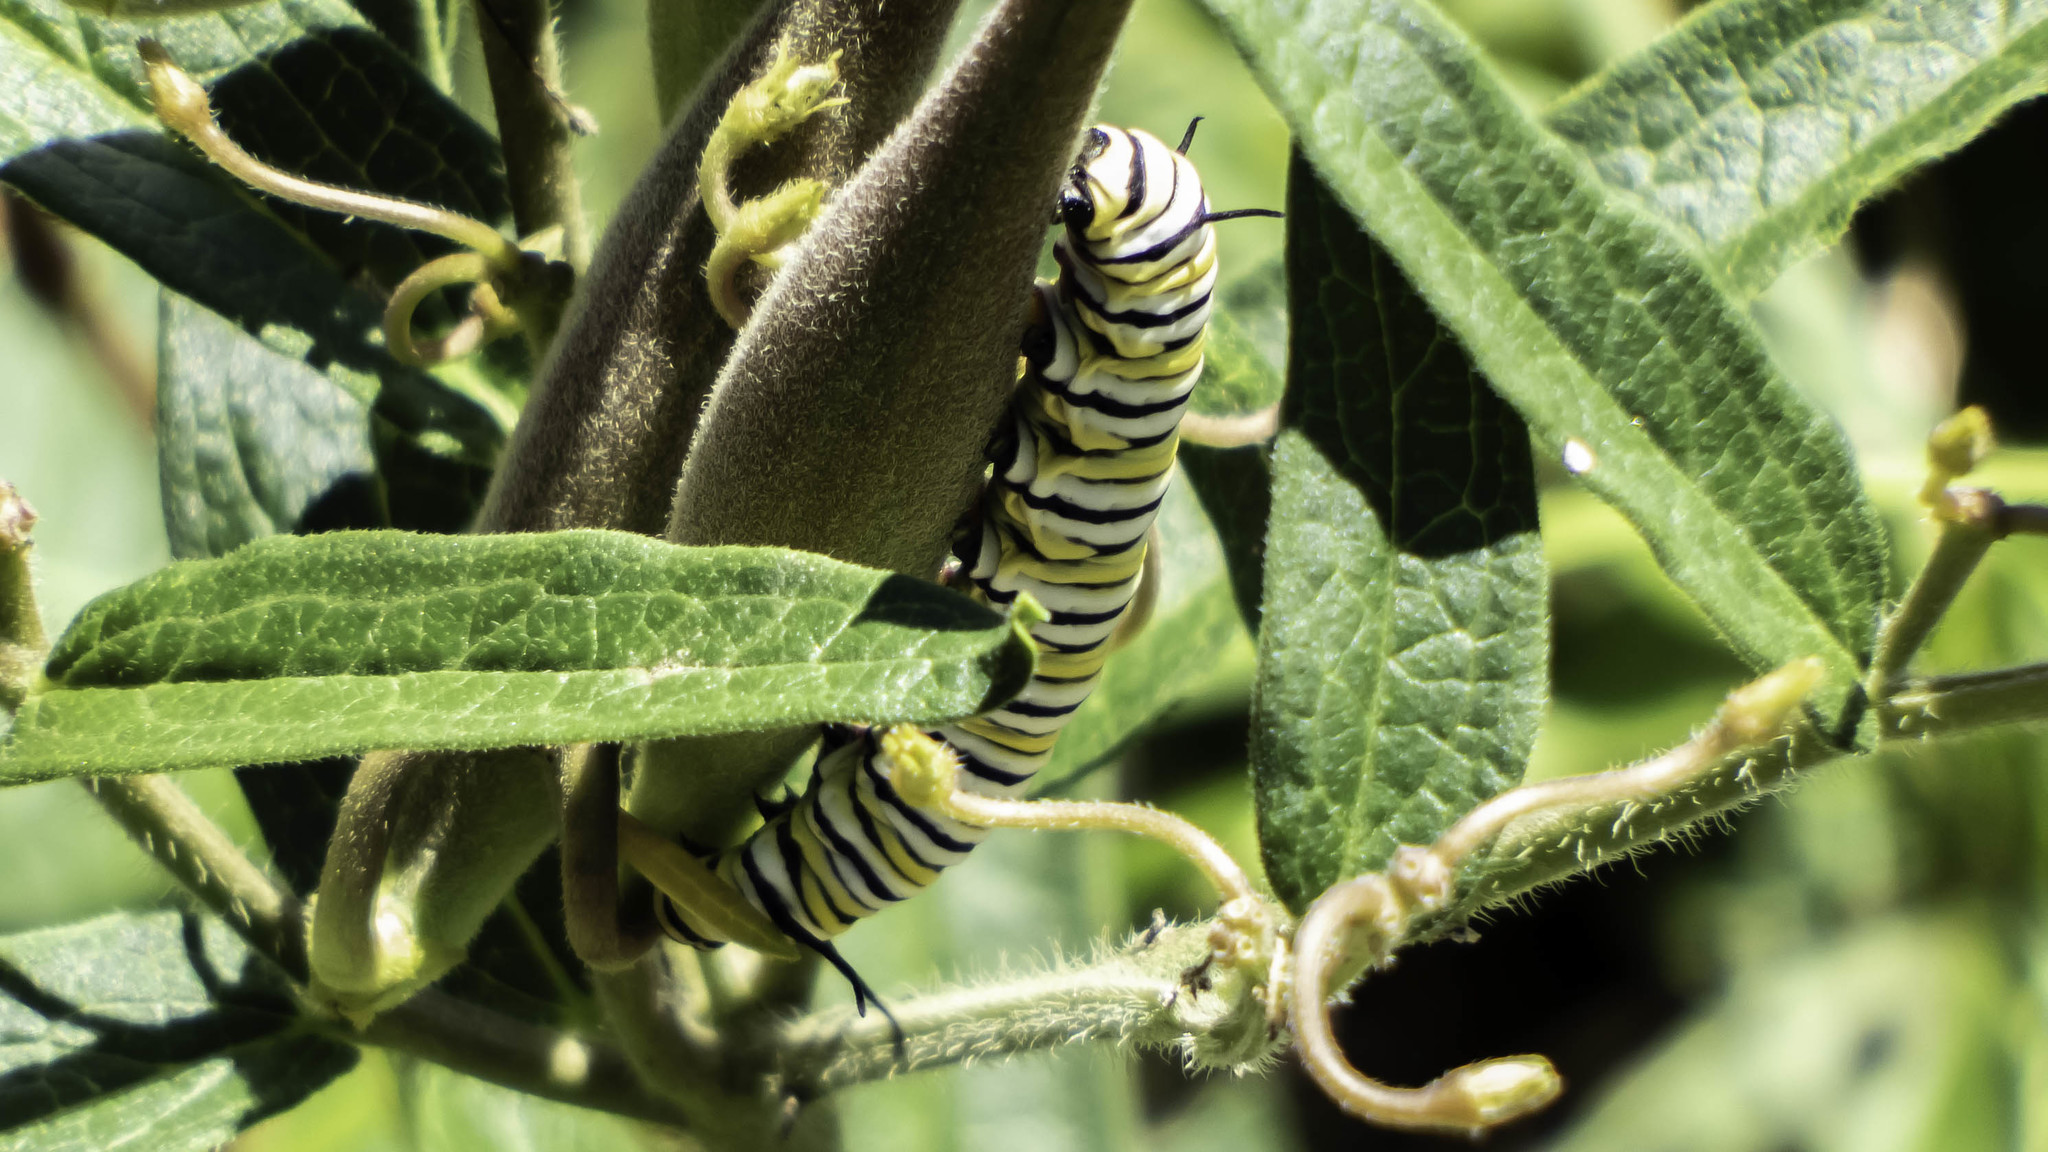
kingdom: Animalia
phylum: Arthropoda
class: Insecta
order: Lepidoptera
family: Nymphalidae
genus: Danaus
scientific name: Danaus plexippus
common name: Monarch
